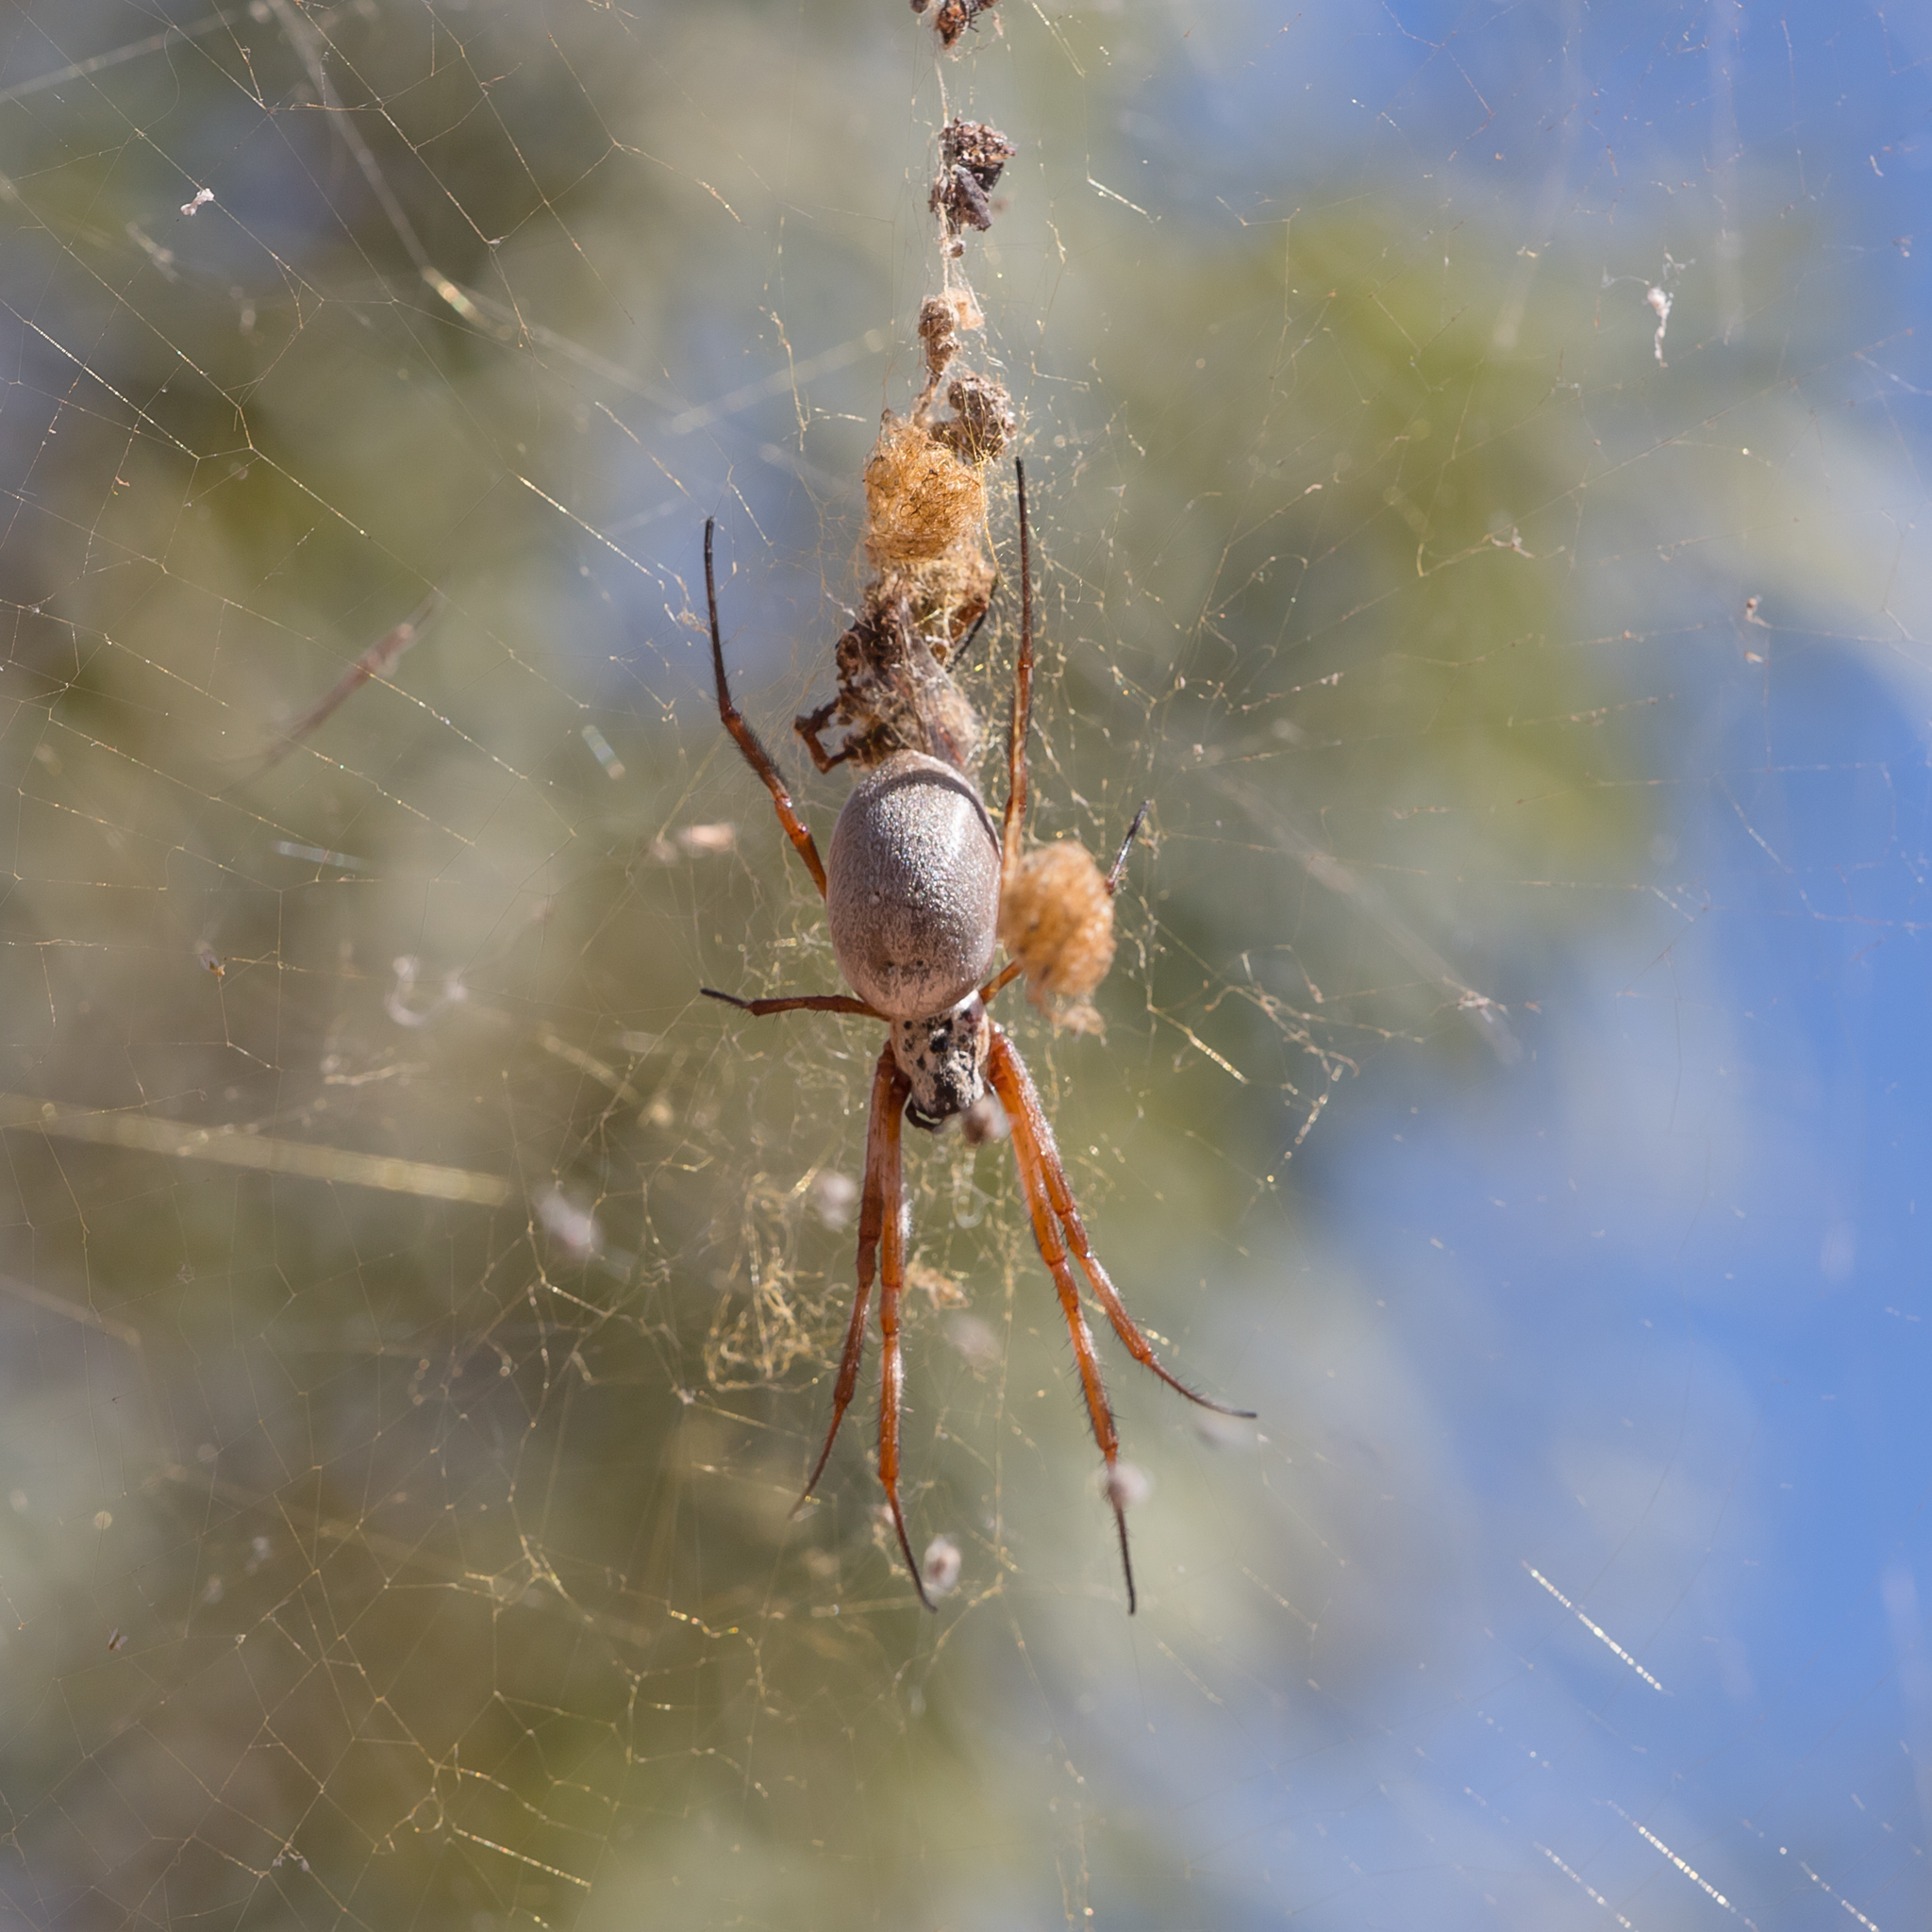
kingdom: Animalia
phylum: Arthropoda
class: Arachnida
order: Araneae
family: Araneidae
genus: Trichonephila
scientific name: Trichonephila edulis
